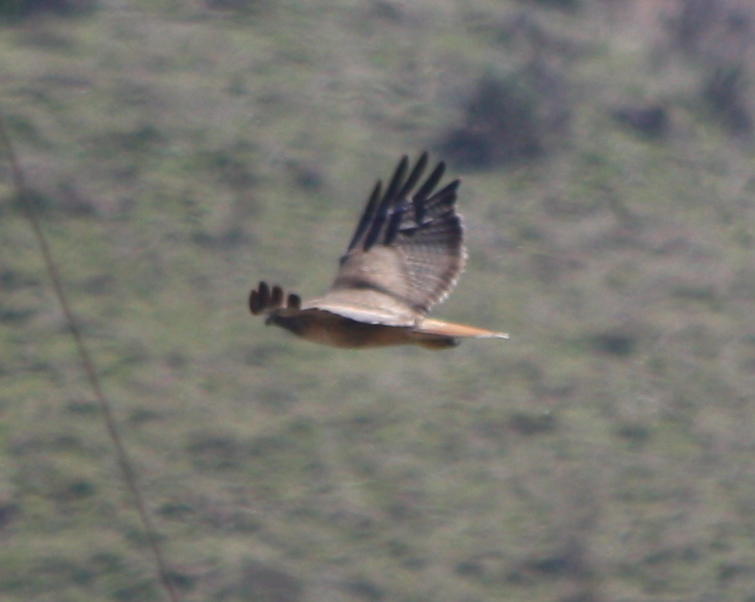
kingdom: Animalia
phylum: Chordata
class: Aves
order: Accipitriformes
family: Accipitridae
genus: Buteo
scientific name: Buteo jamaicensis
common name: Red-tailed hawk
